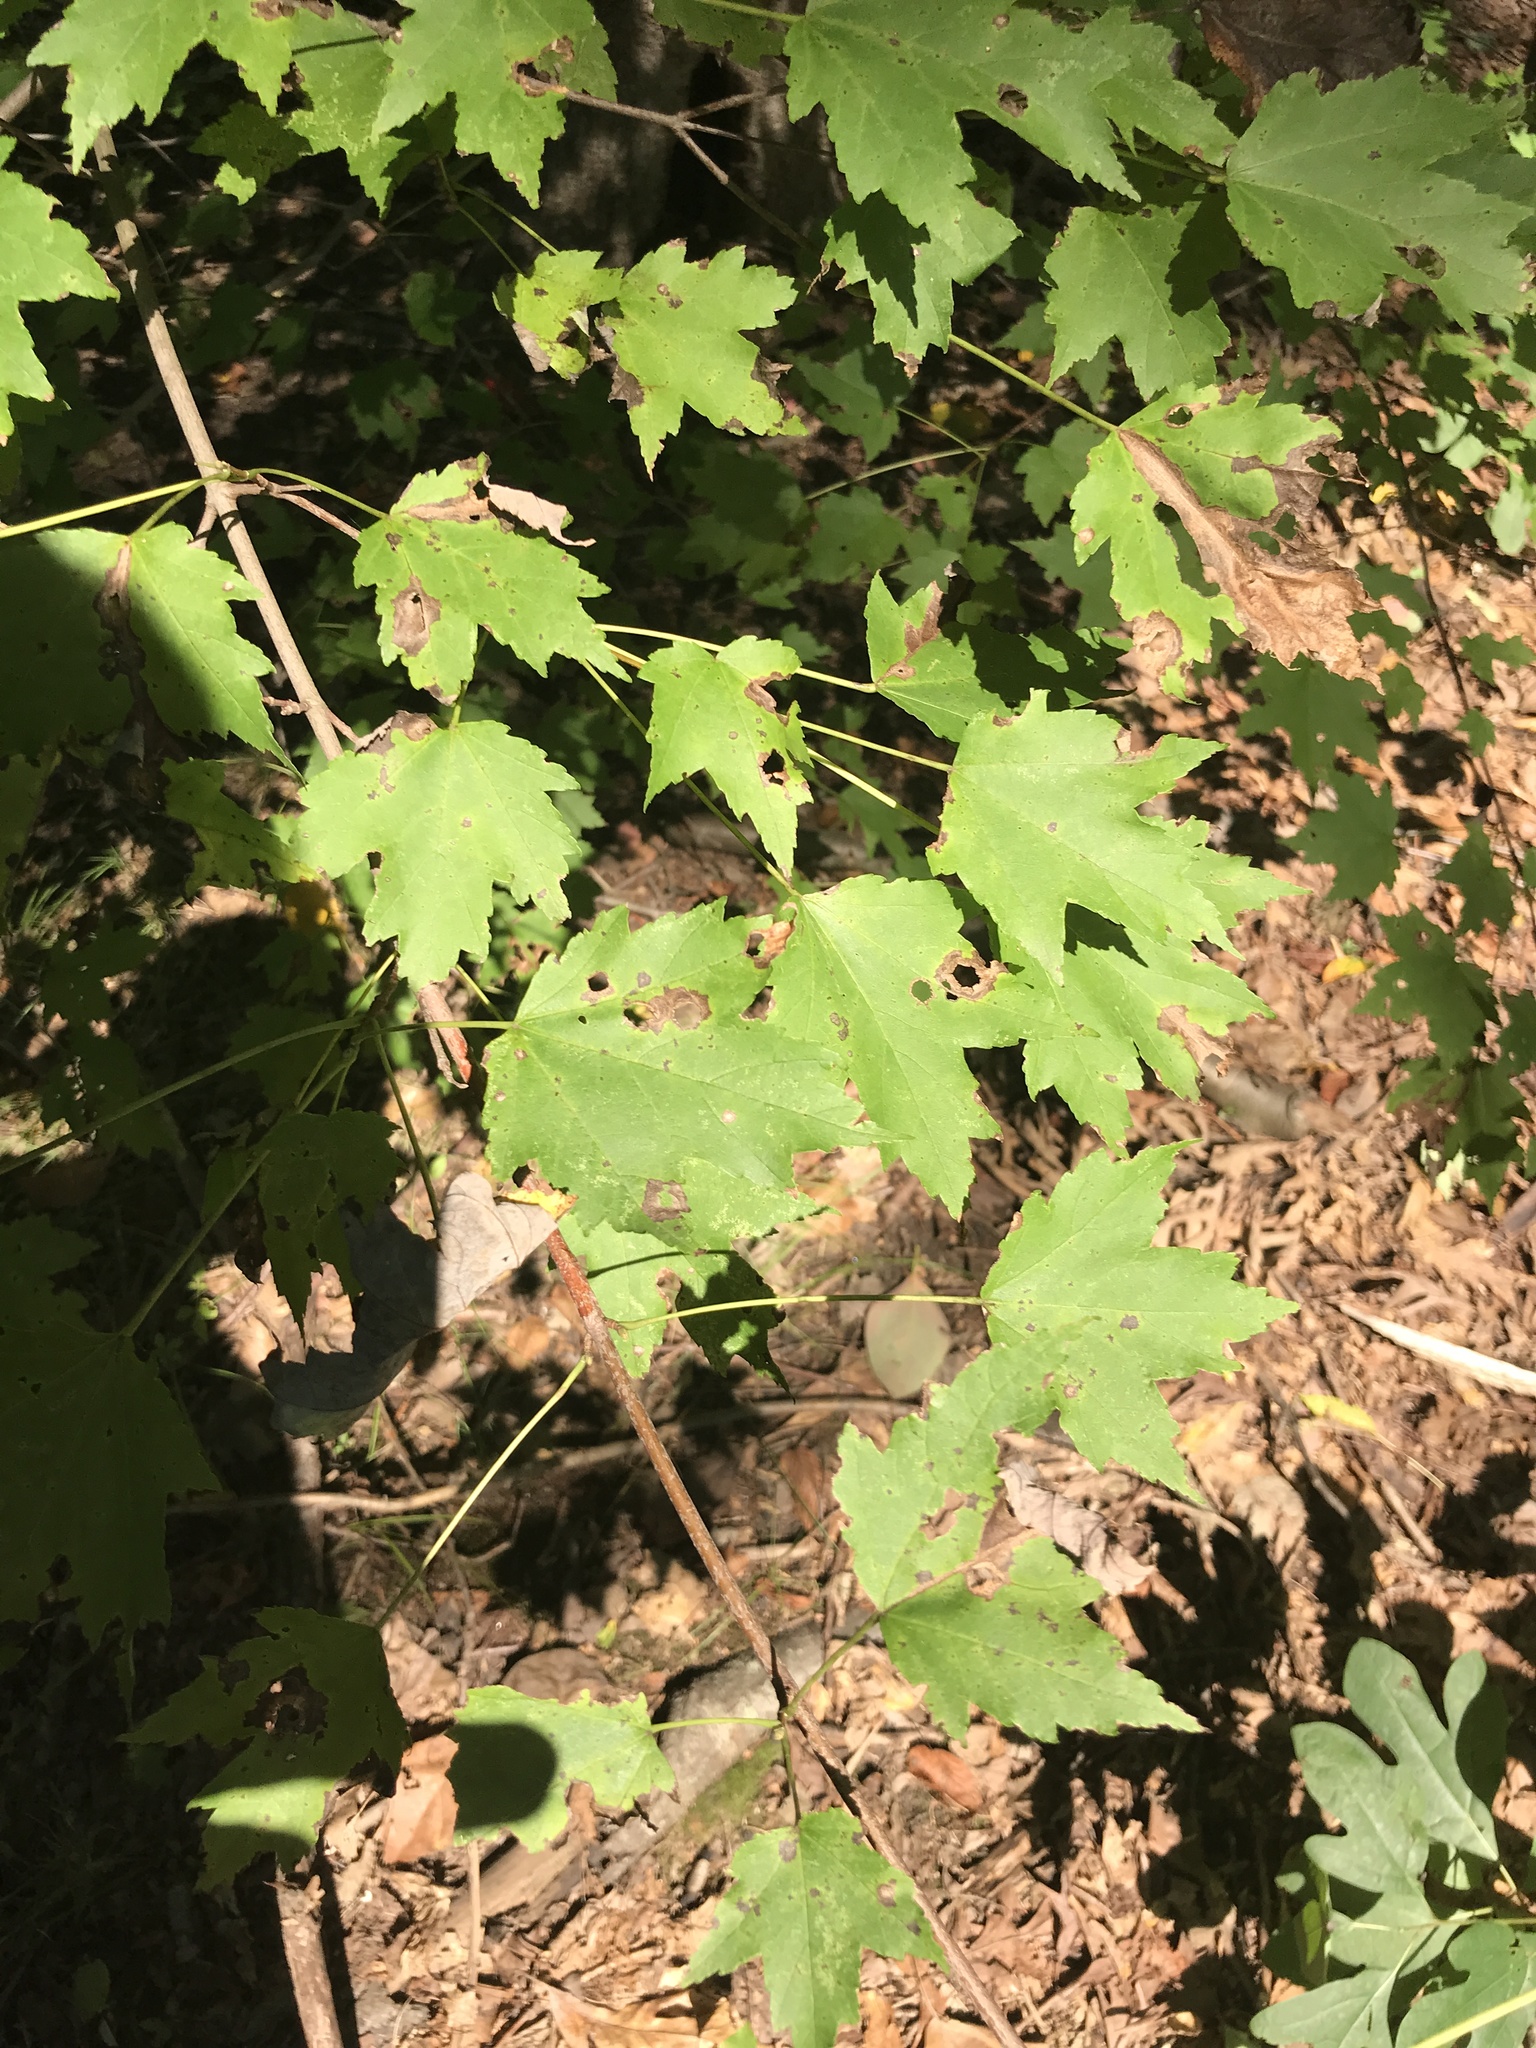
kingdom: Plantae
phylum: Tracheophyta
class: Magnoliopsida
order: Sapindales
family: Sapindaceae
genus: Acer
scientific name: Acer rubrum
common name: Red maple
